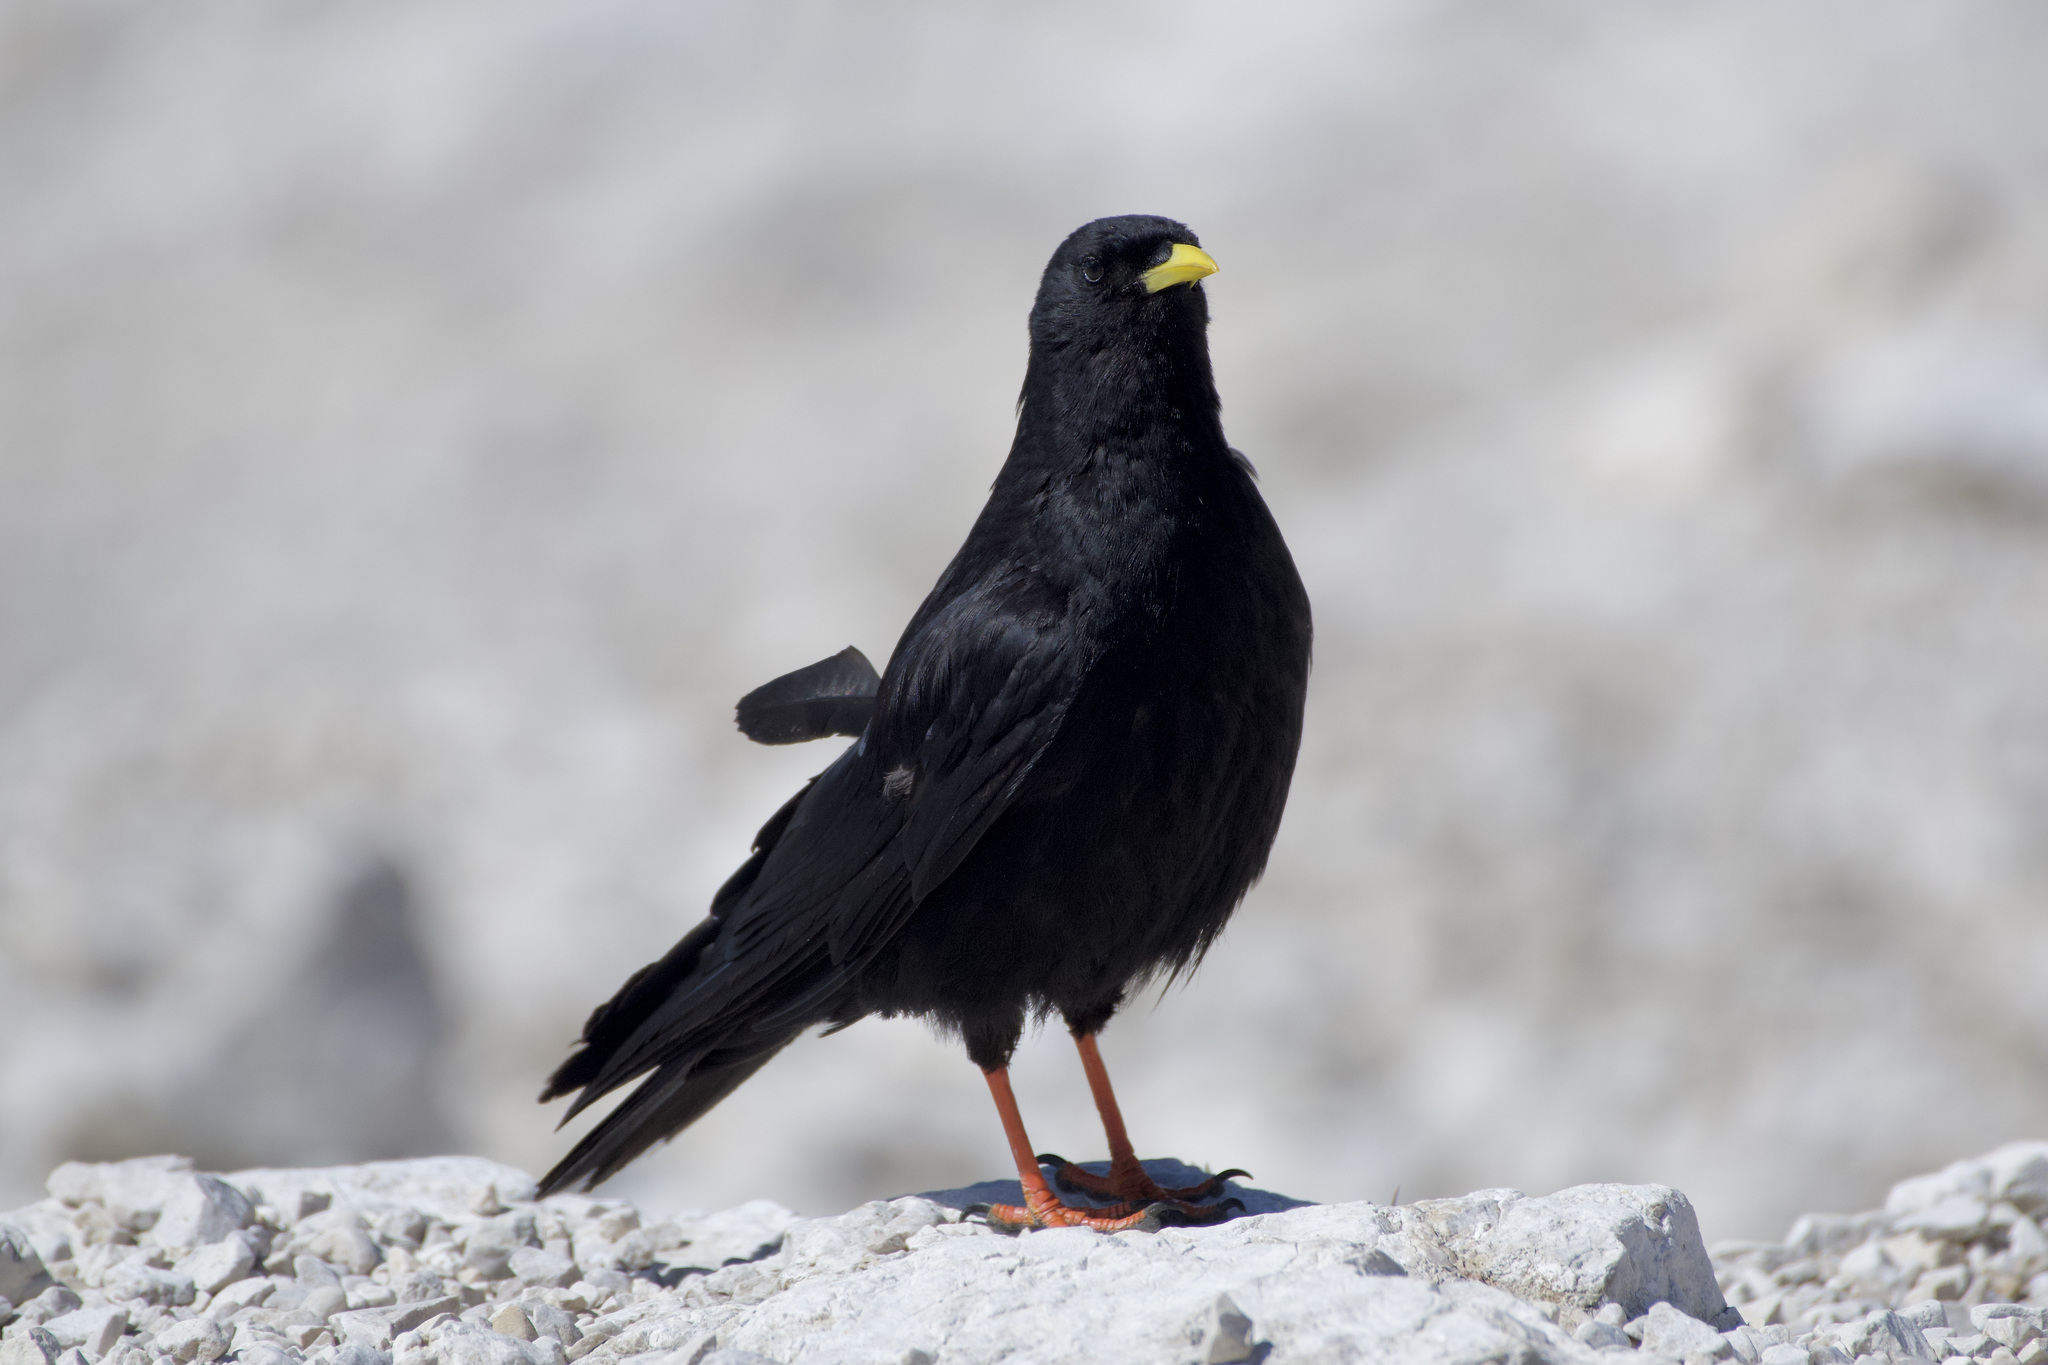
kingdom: Animalia
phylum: Chordata
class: Aves
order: Passeriformes
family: Corvidae
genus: Pyrrhocorax
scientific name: Pyrrhocorax graculus
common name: Alpine chough
